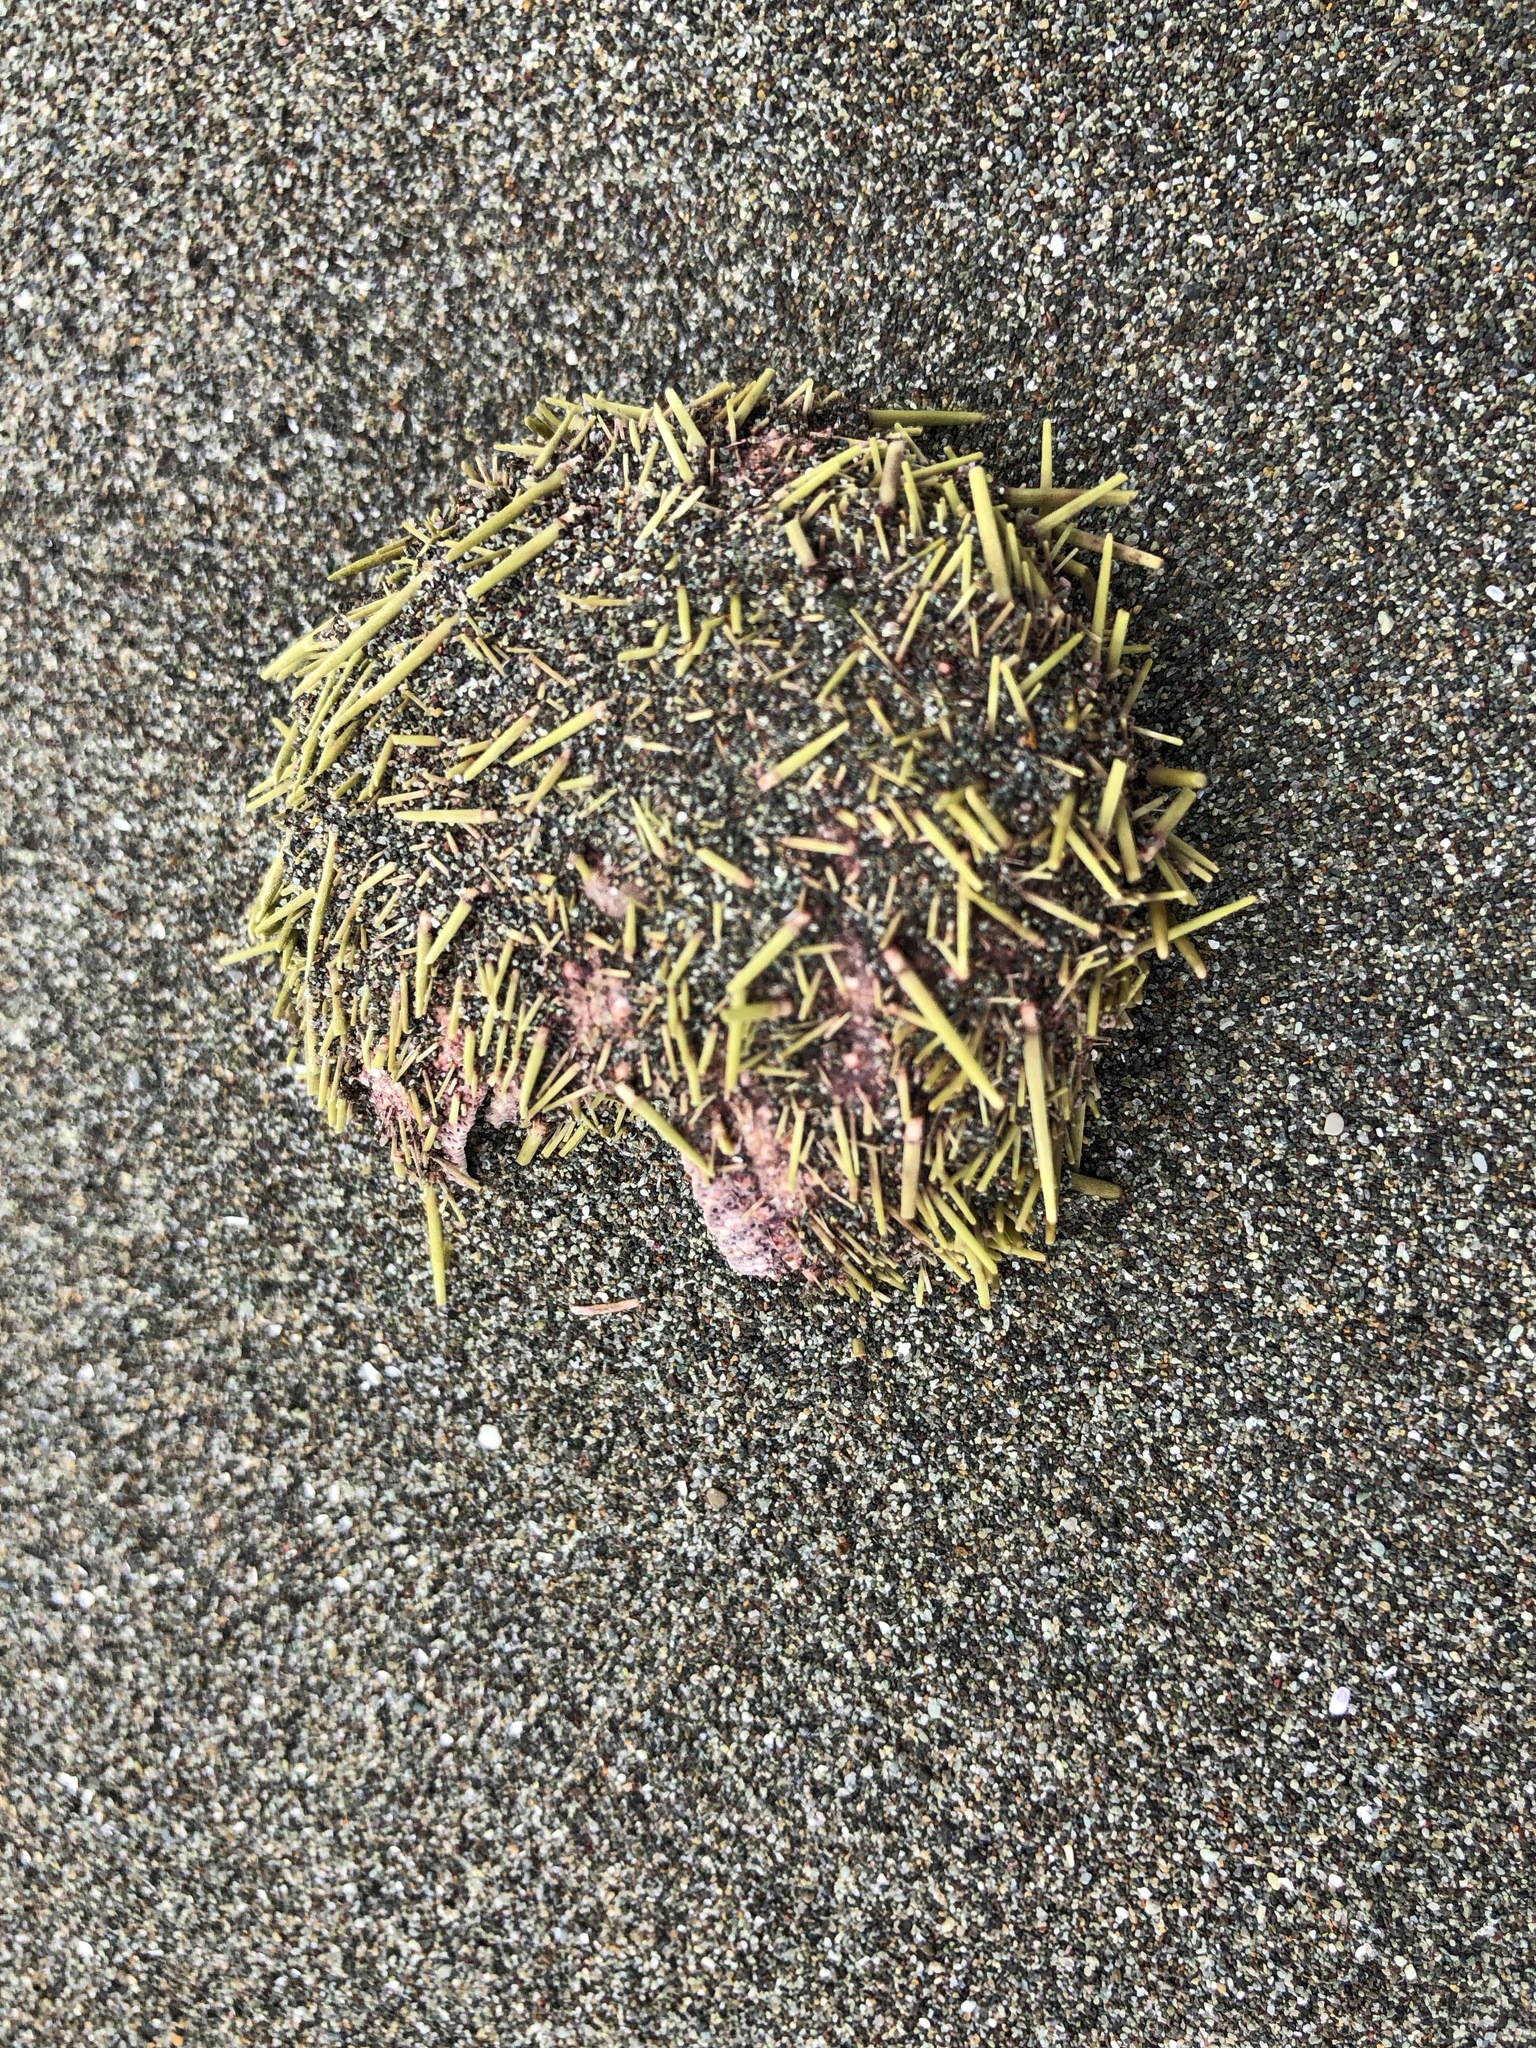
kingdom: Animalia
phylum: Echinodermata
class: Echinoidea
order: Camarodonta
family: Strongylocentrotidae
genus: Strongylocentrotus
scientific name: Strongylocentrotus droebachiensis
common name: Northern sea urchin
